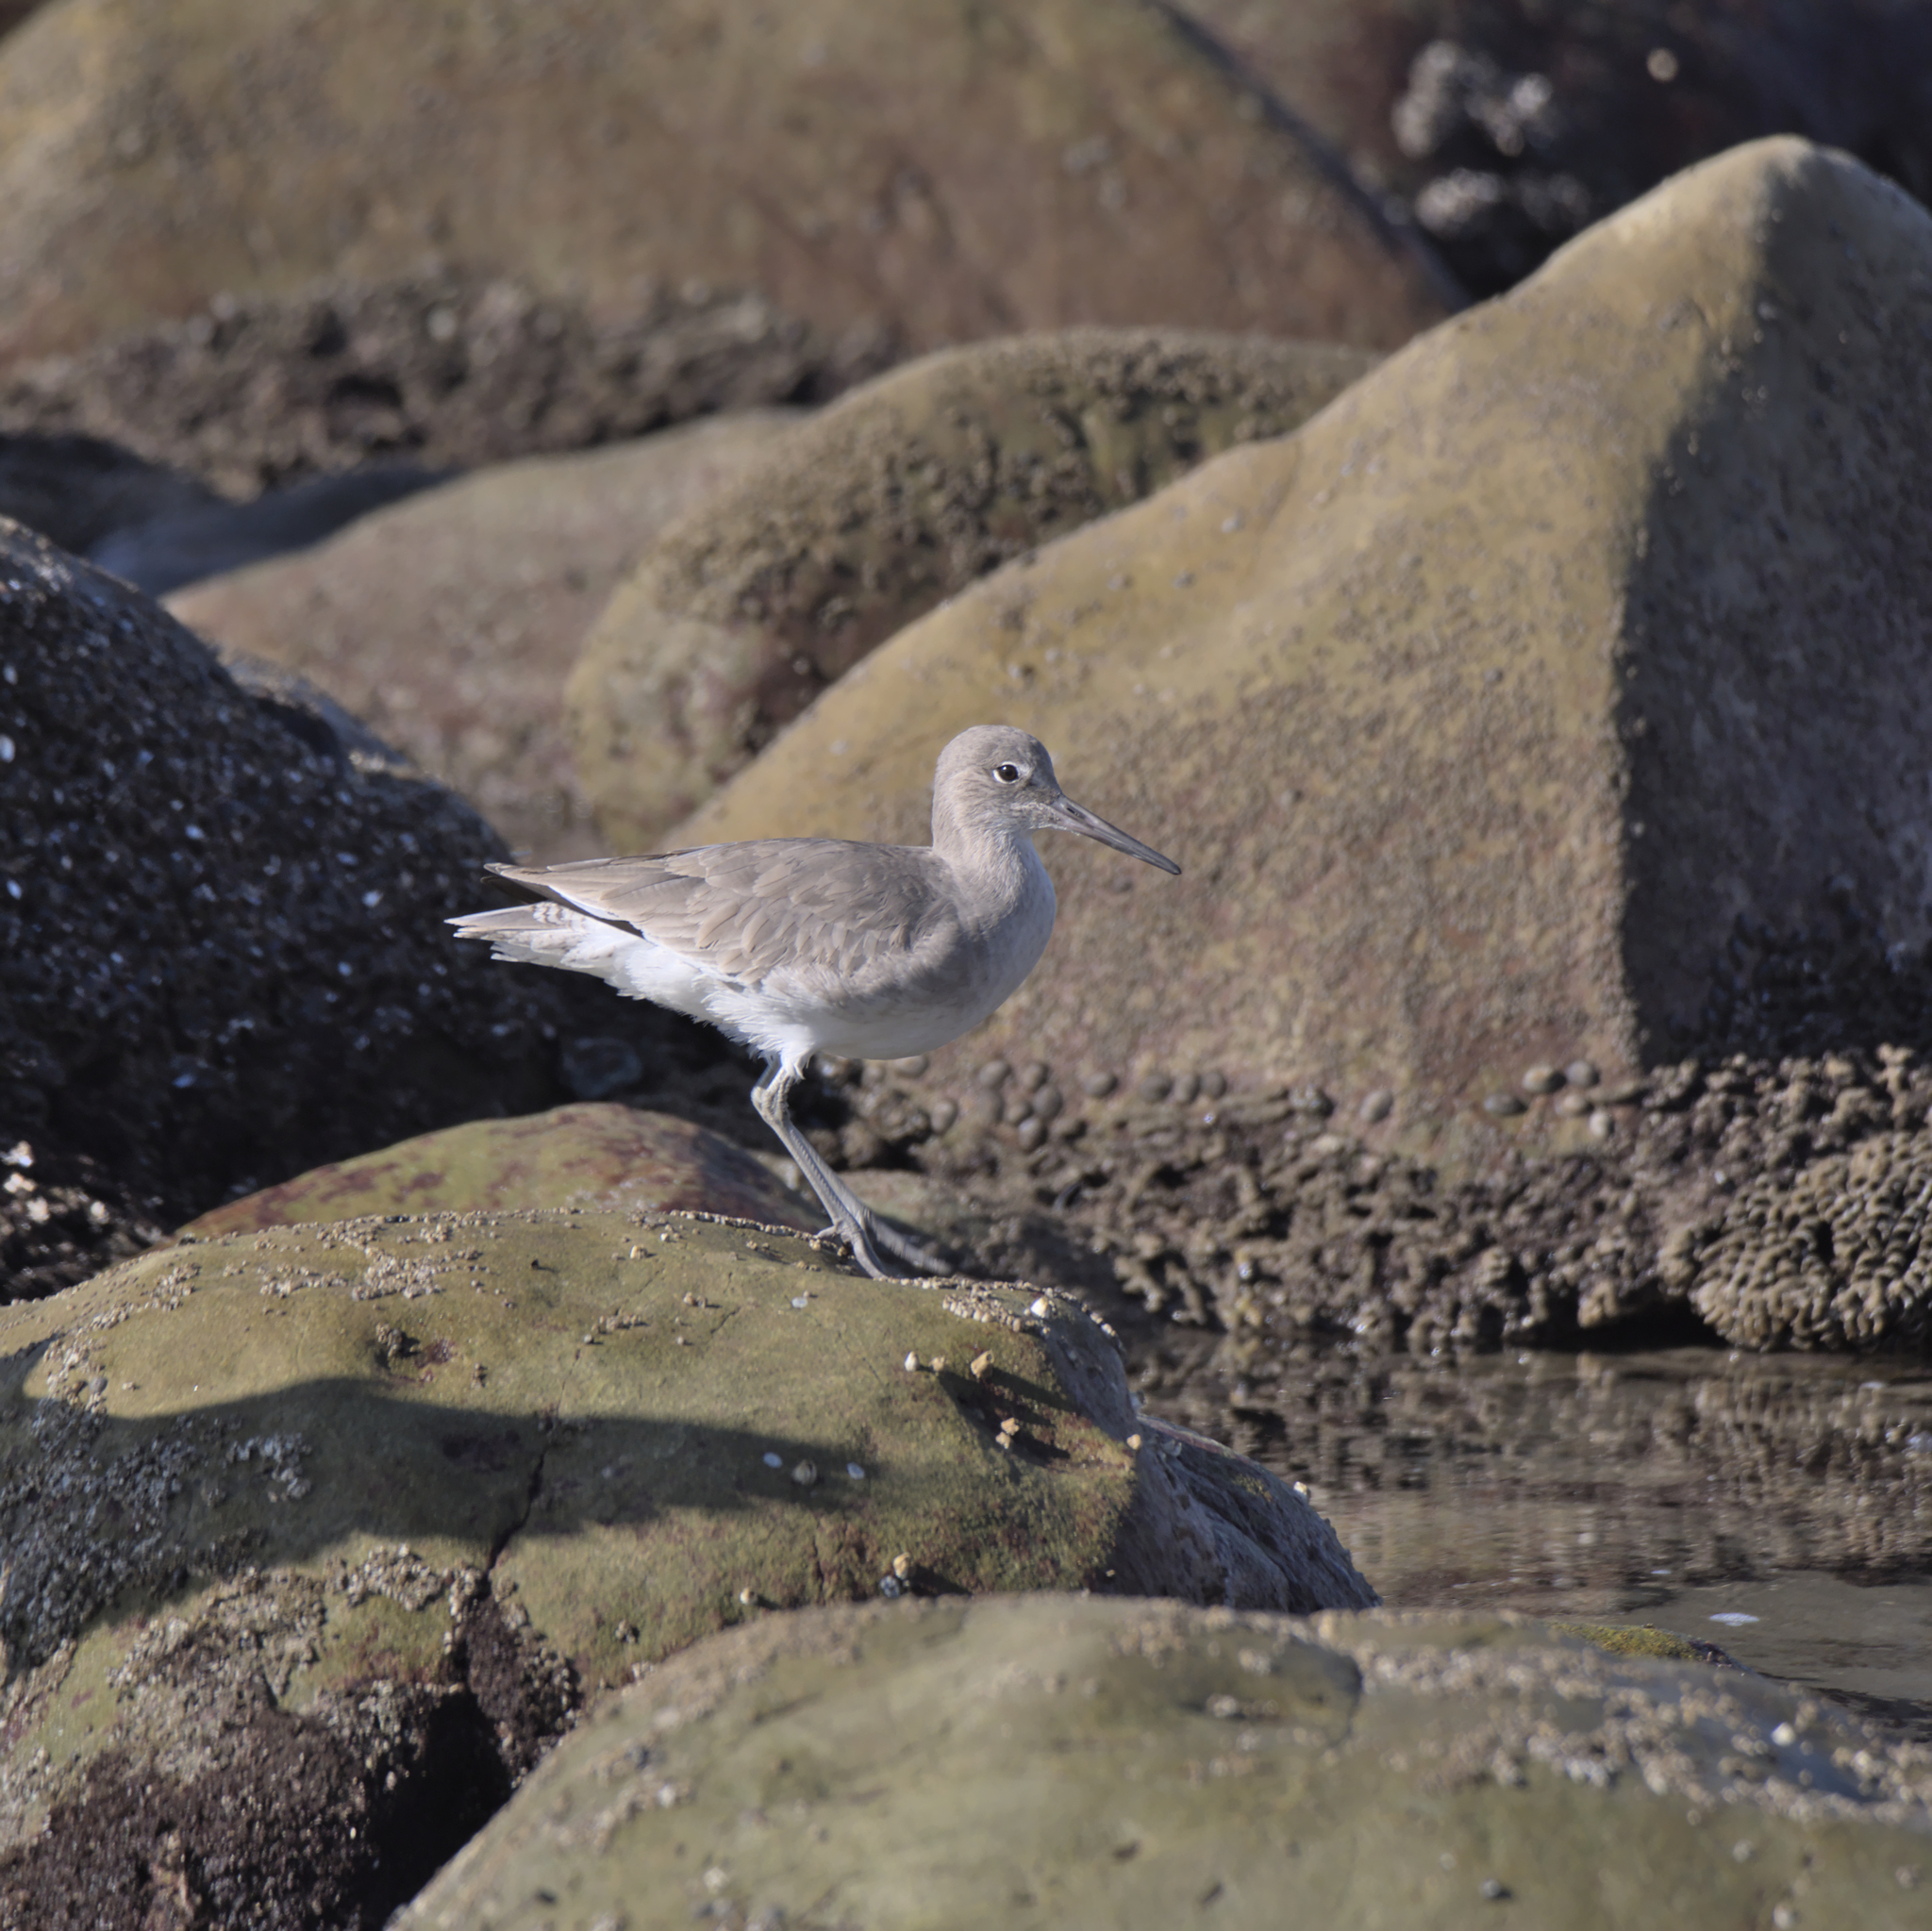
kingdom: Animalia
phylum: Chordata
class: Aves
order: Charadriiformes
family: Scolopacidae
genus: Tringa
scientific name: Tringa semipalmata
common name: Willet
